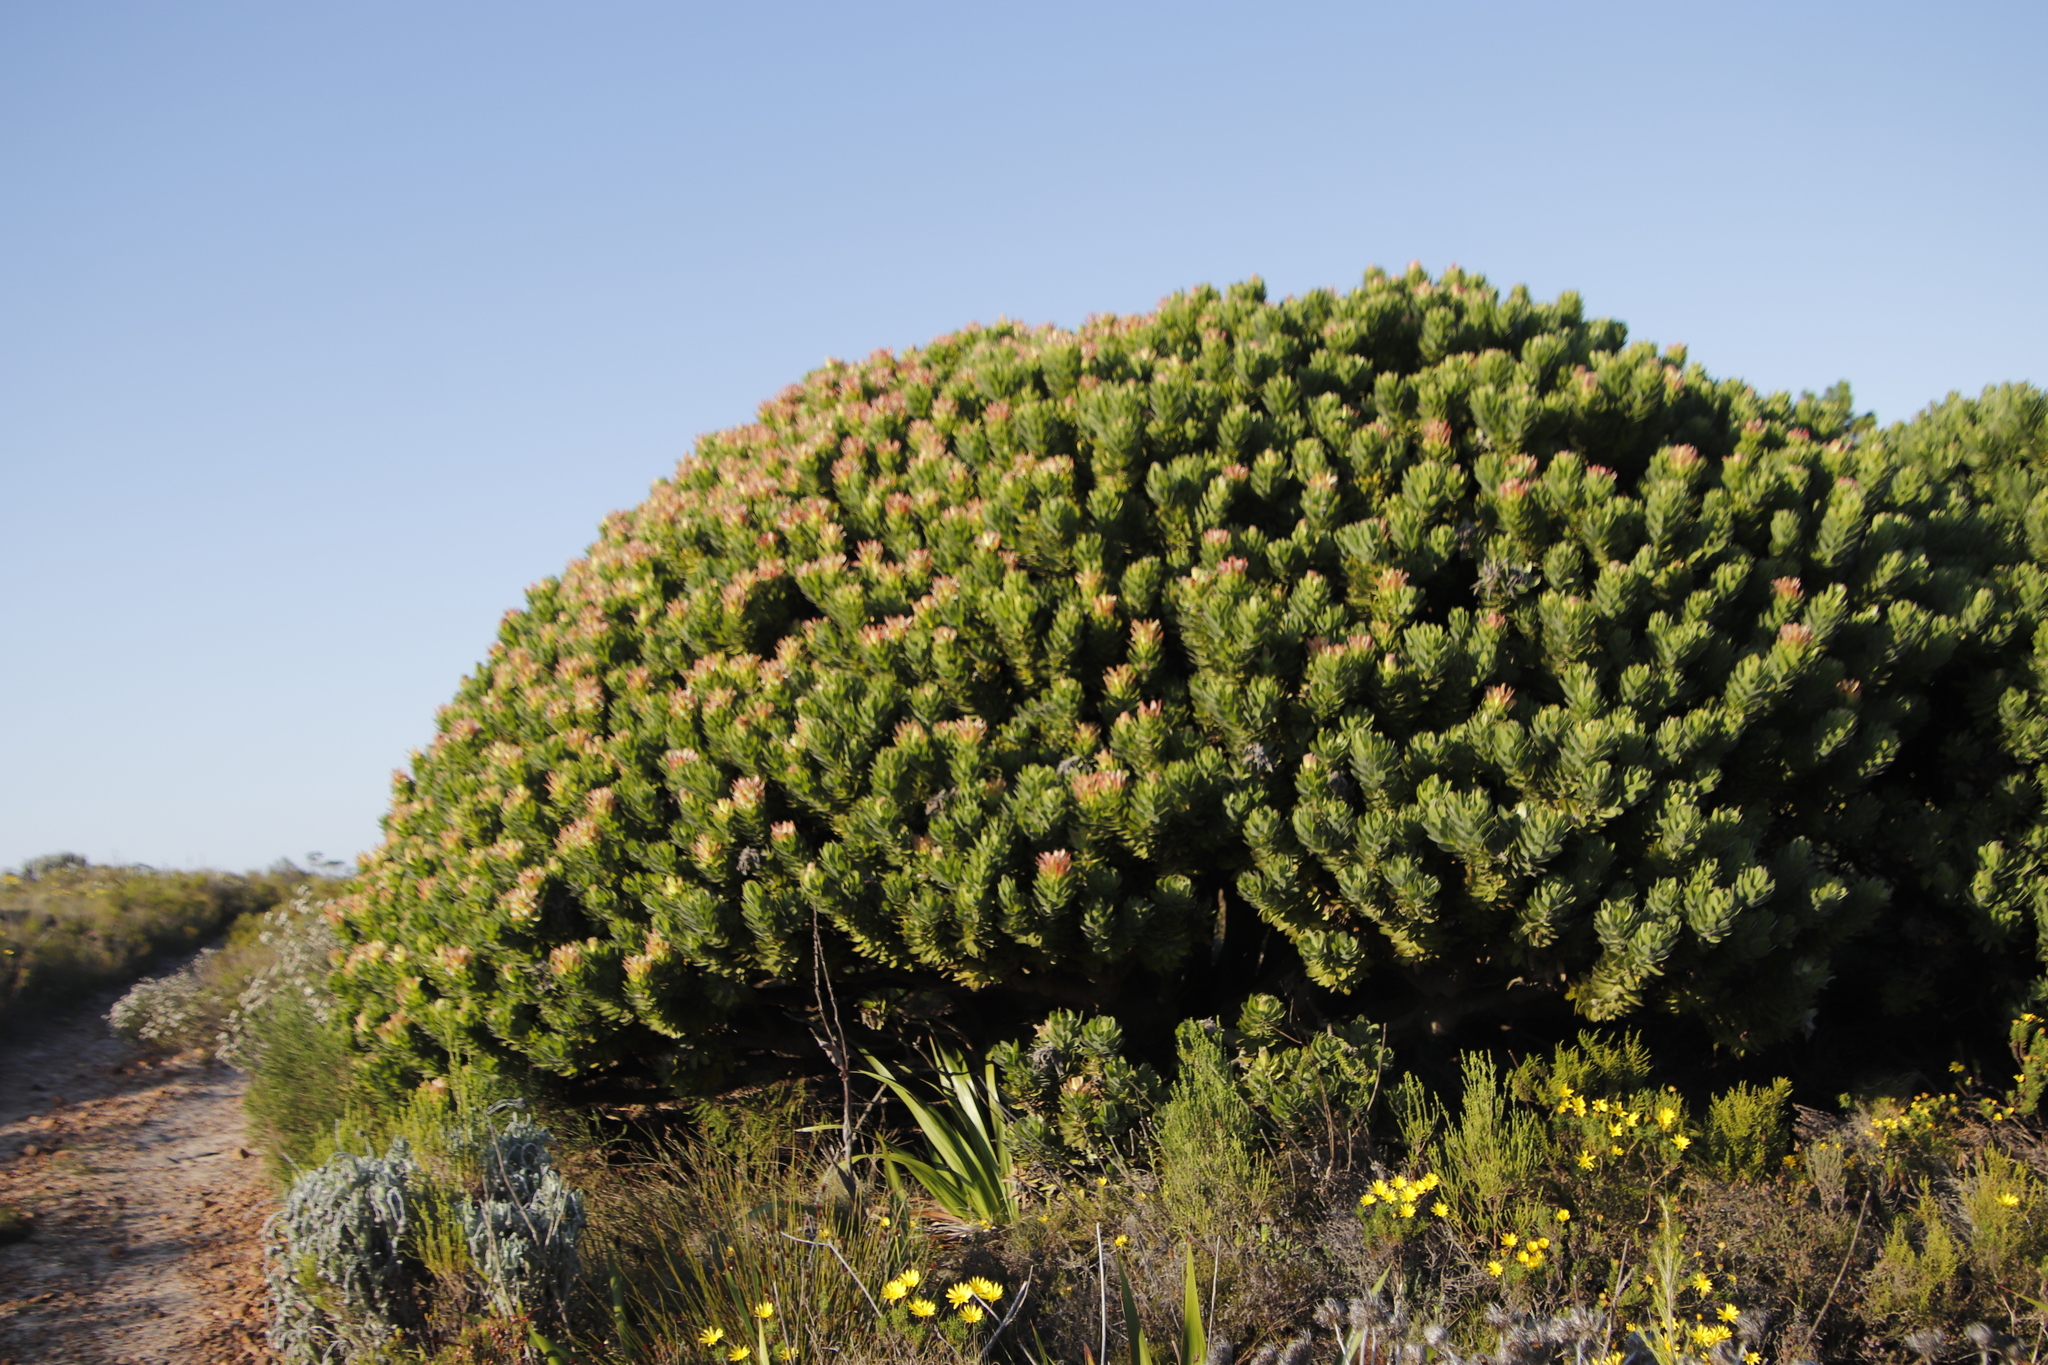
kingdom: Plantae
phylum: Tracheophyta
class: Magnoliopsida
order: Proteales
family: Proteaceae
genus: Mimetes
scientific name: Mimetes fimbriifolius
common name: Fringed bottlebrush
